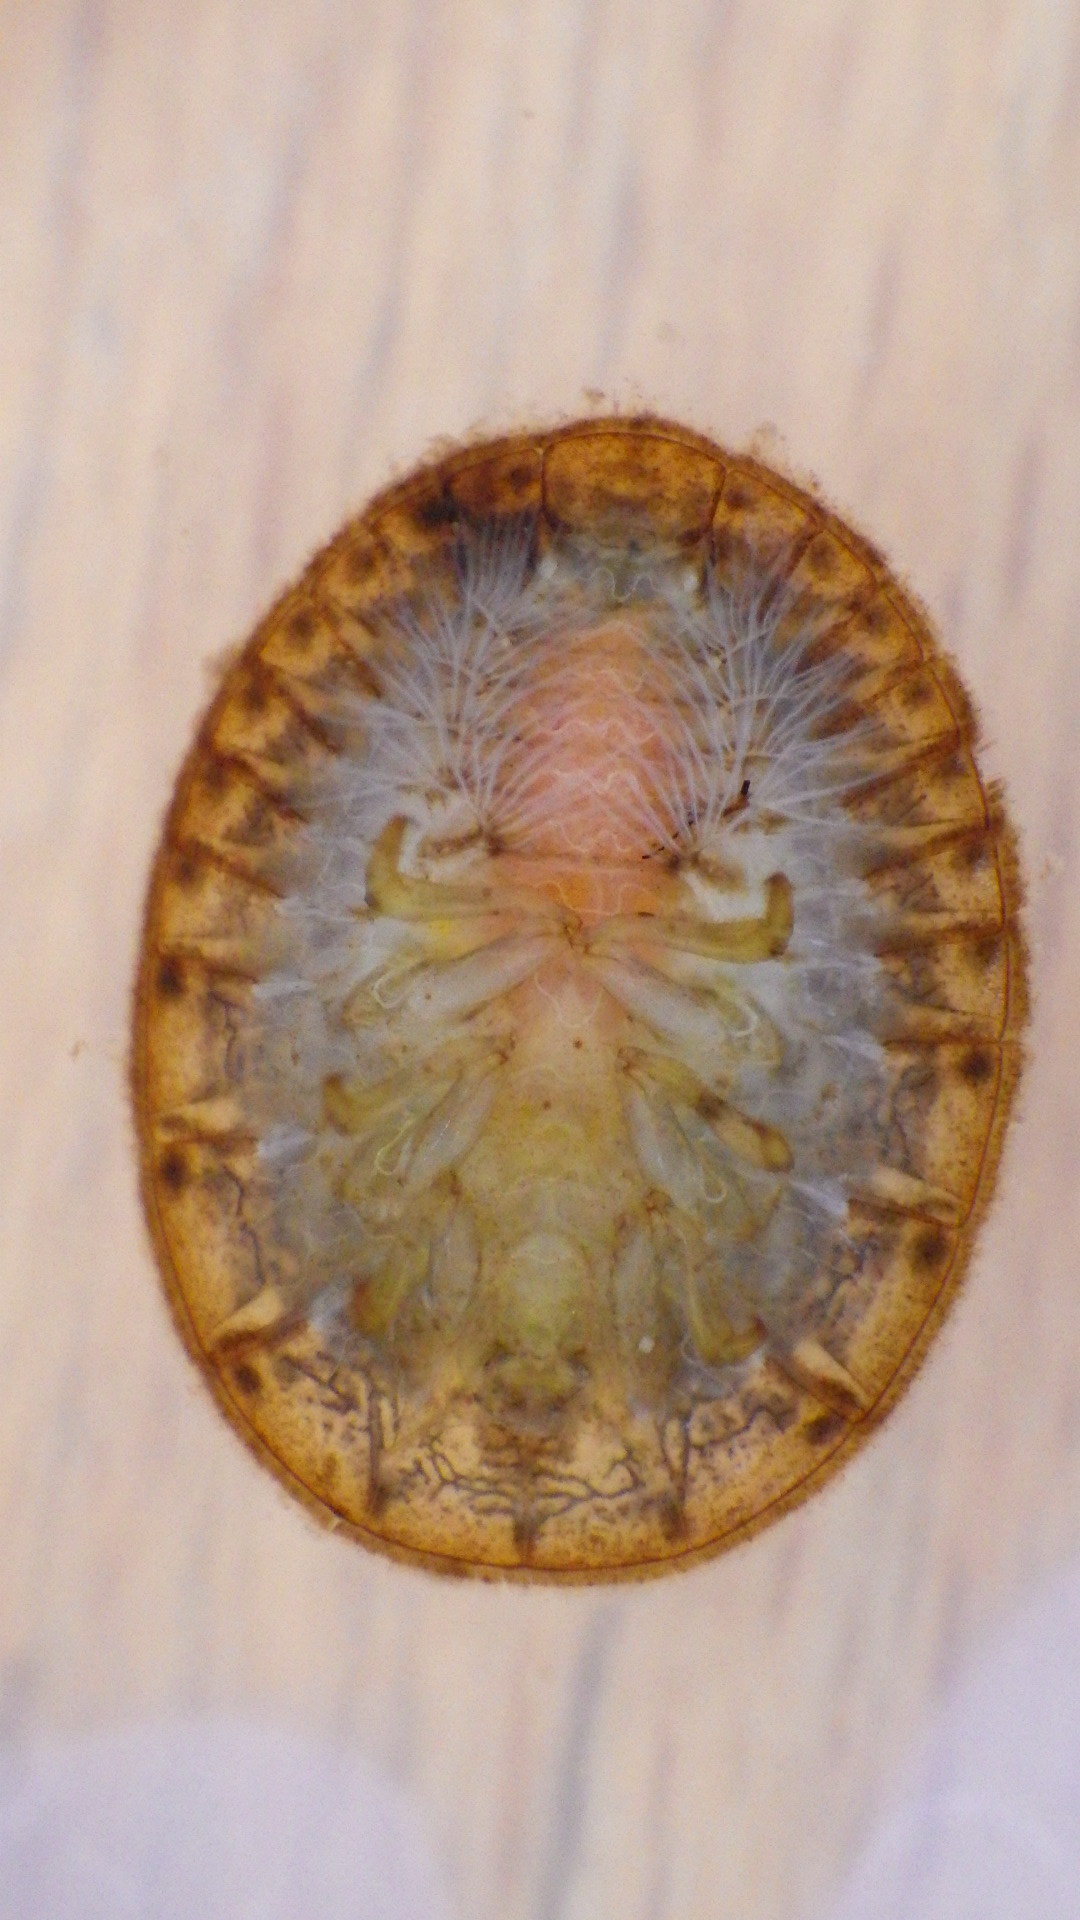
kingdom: Animalia
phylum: Arthropoda
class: Insecta
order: Coleoptera
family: Psephenidae
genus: Psephenus
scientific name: Psephenus herricki
